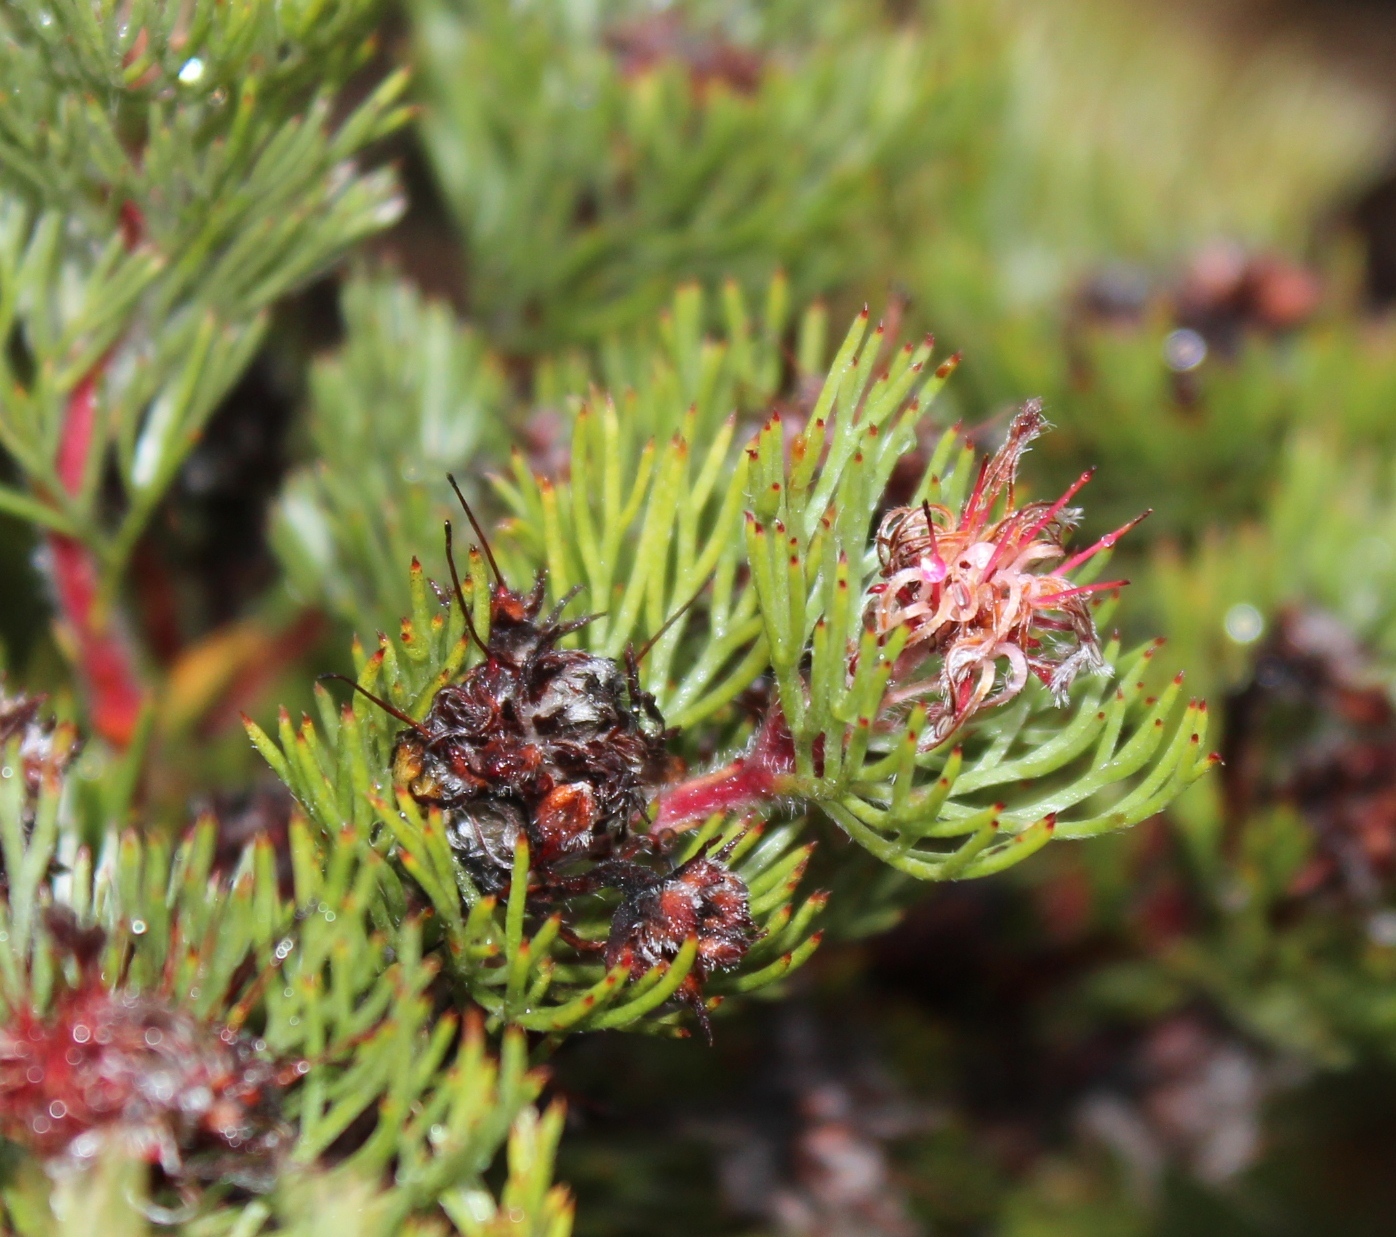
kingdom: Plantae
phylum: Tracheophyta
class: Magnoliopsida
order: Proteales
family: Proteaceae
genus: Serruria
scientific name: Serruria candicans
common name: Shiny spiderhead
